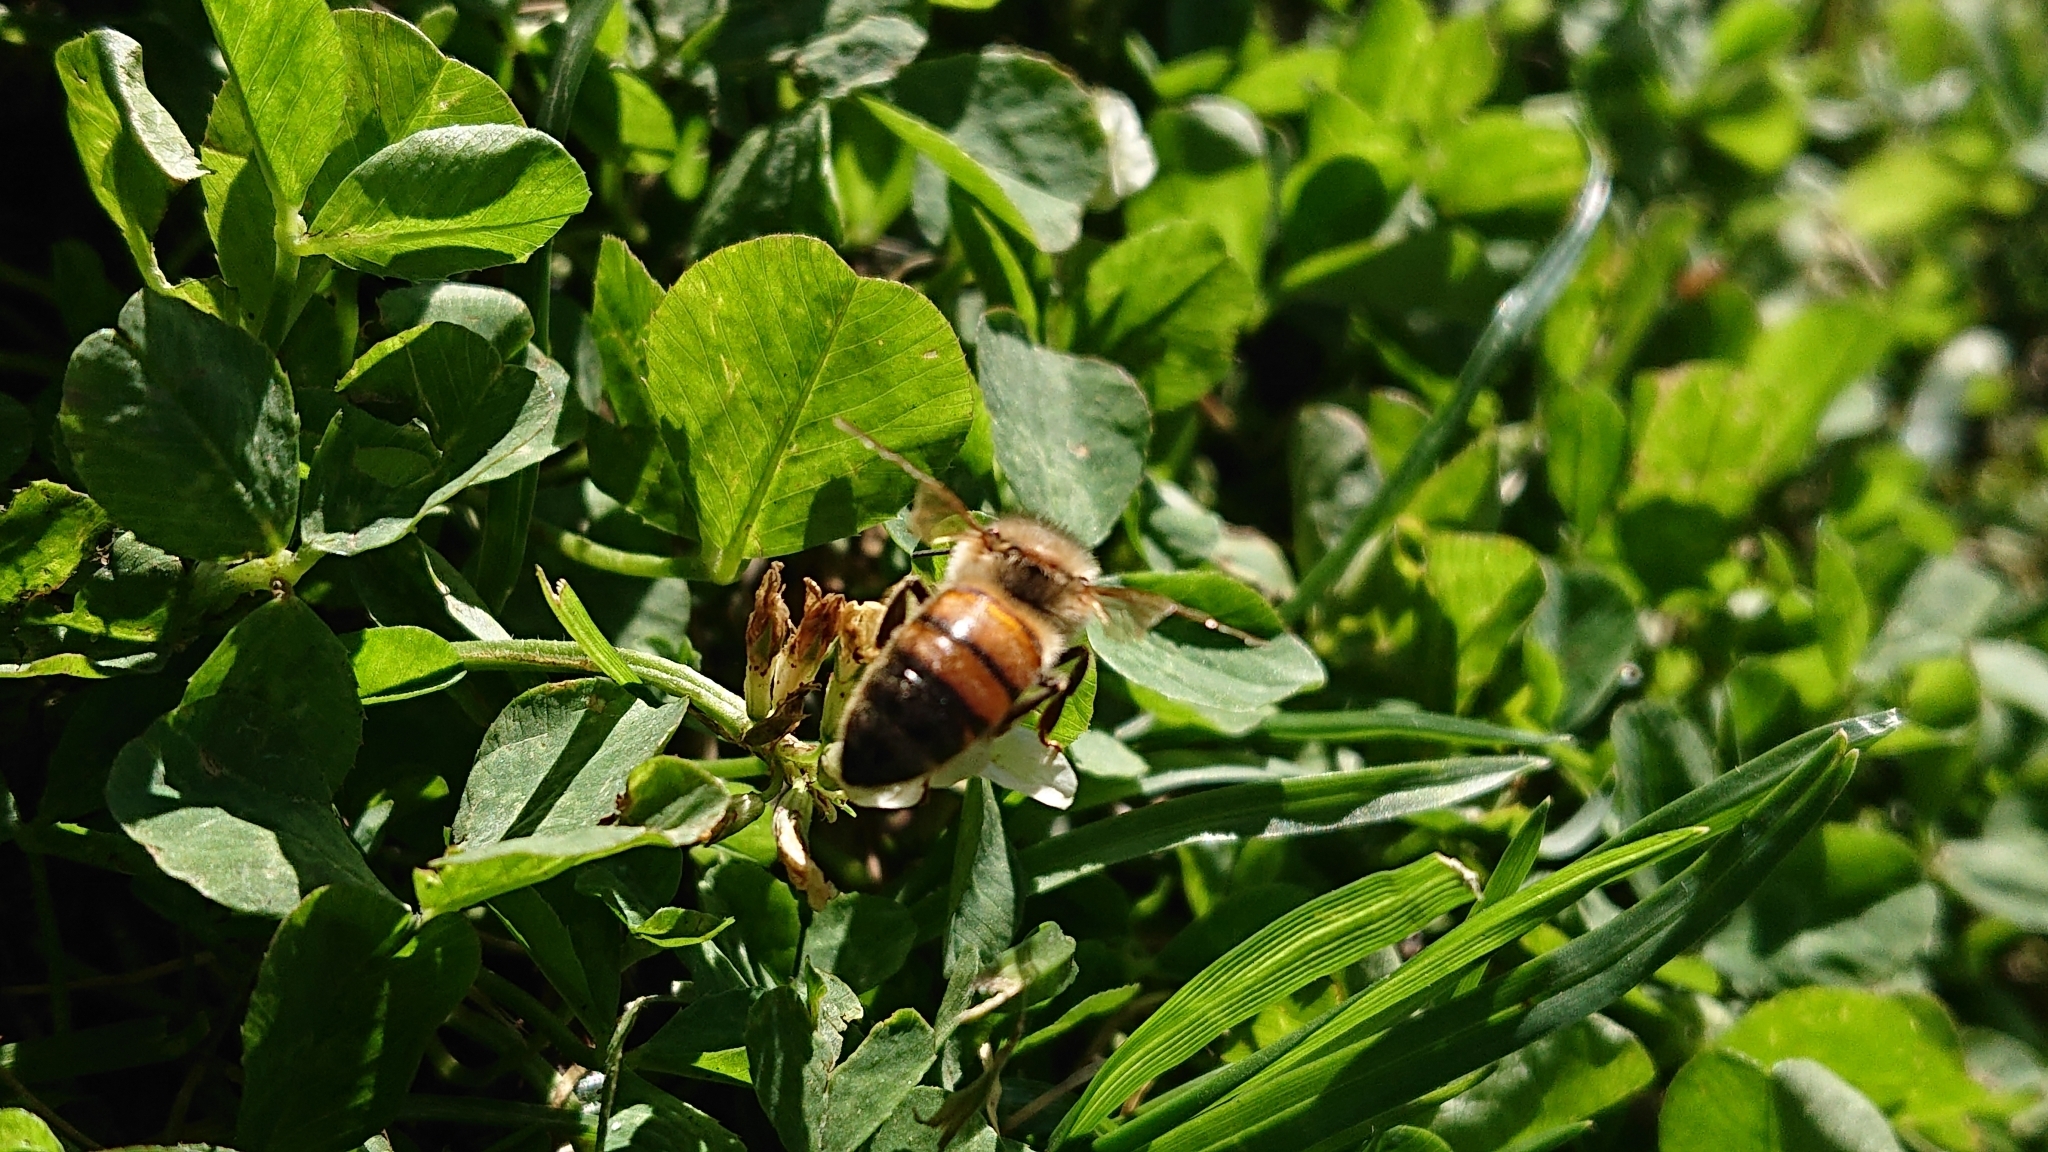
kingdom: Animalia
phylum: Arthropoda
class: Insecta
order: Hymenoptera
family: Apidae
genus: Apis
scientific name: Apis mellifera
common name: Honey bee
